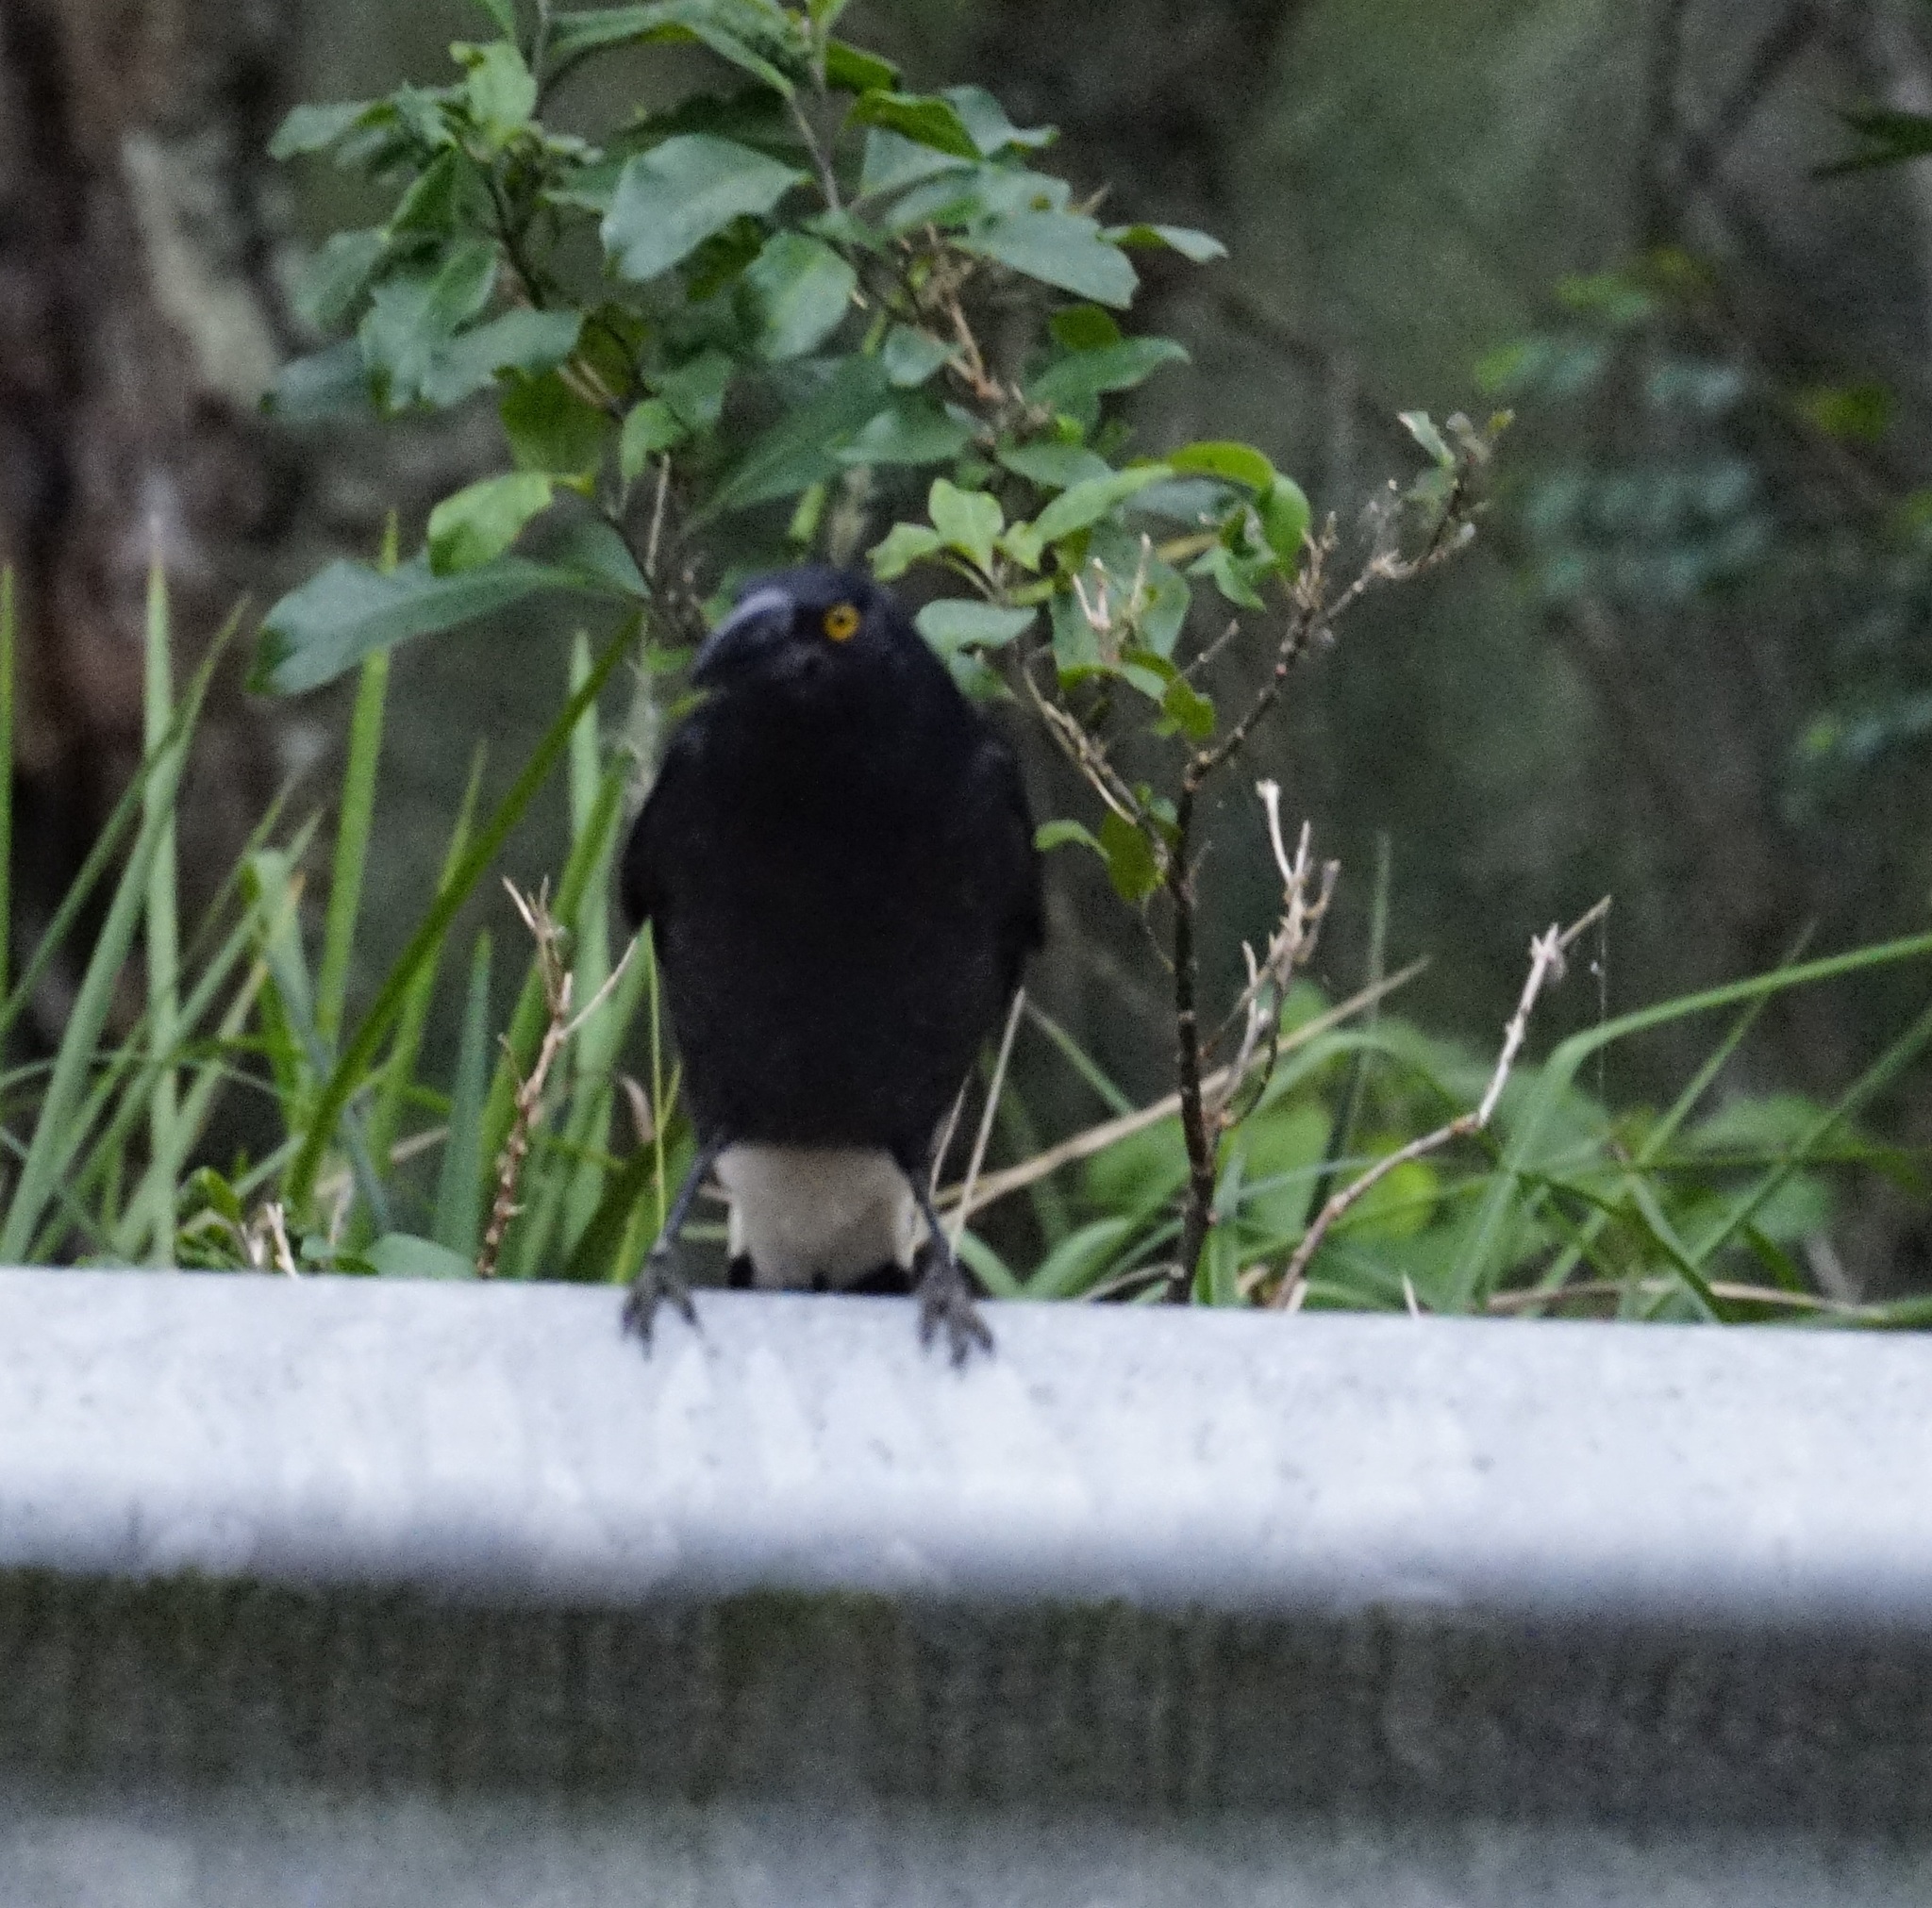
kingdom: Animalia
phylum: Chordata
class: Aves
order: Passeriformes
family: Cracticidae
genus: Strepera
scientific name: Strepera graculina
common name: Pied currawong
